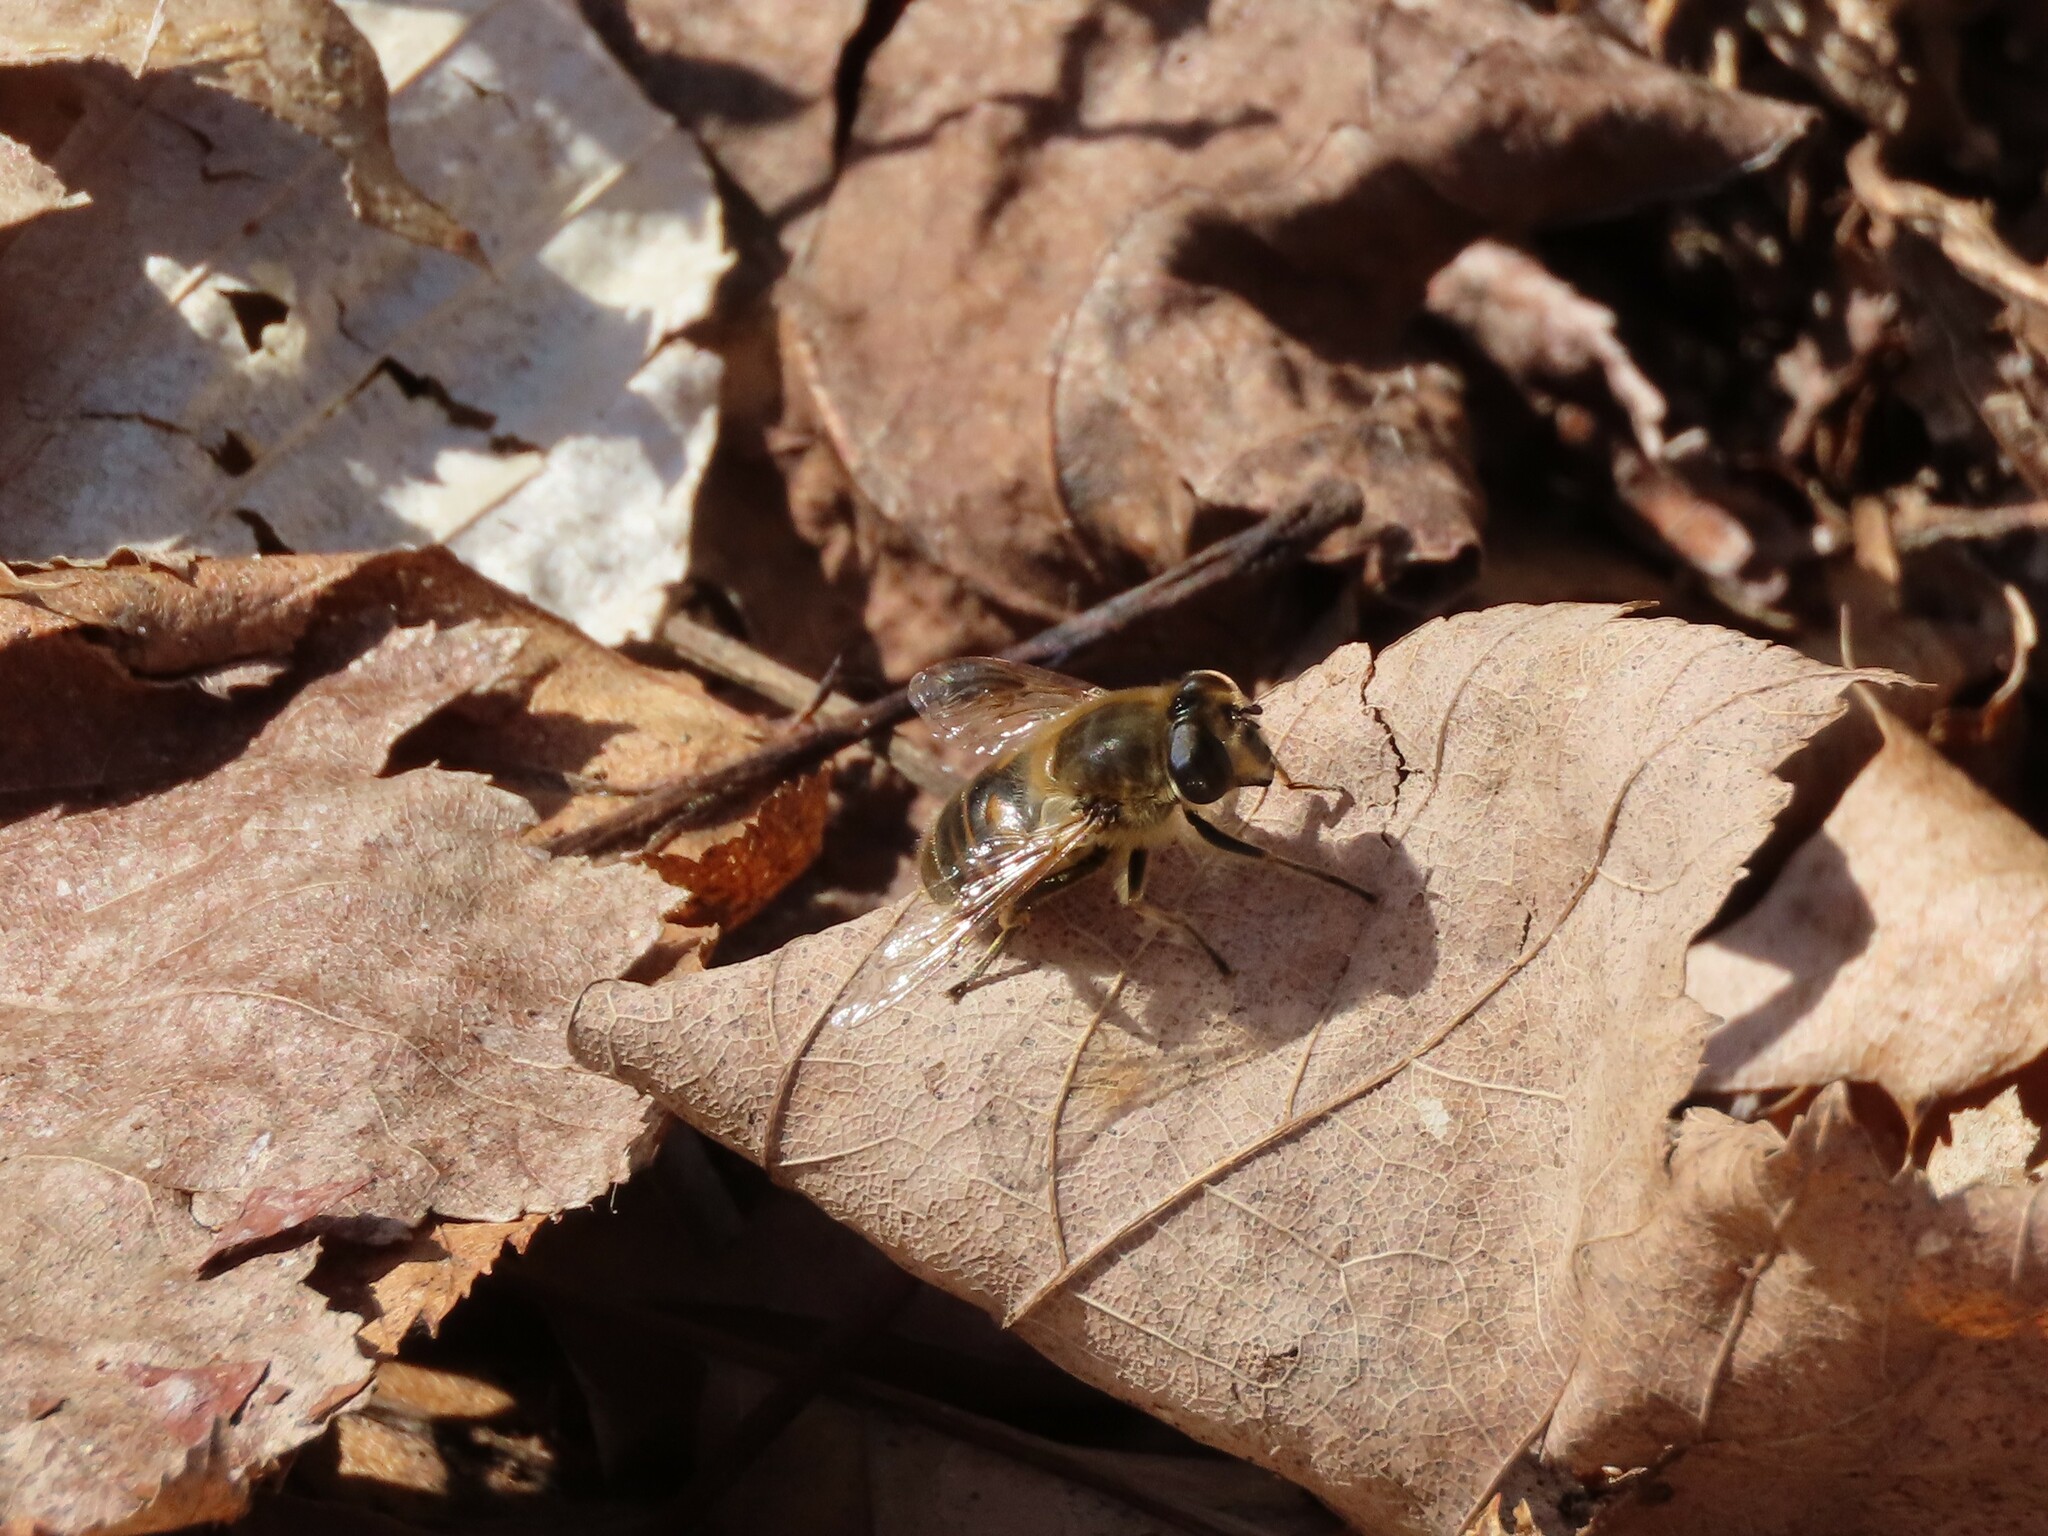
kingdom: Animalia
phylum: Arthropoda
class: Insecta
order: Diptera
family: Syrphidae
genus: Eristalis
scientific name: Eristalis tenax
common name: Drone fly
